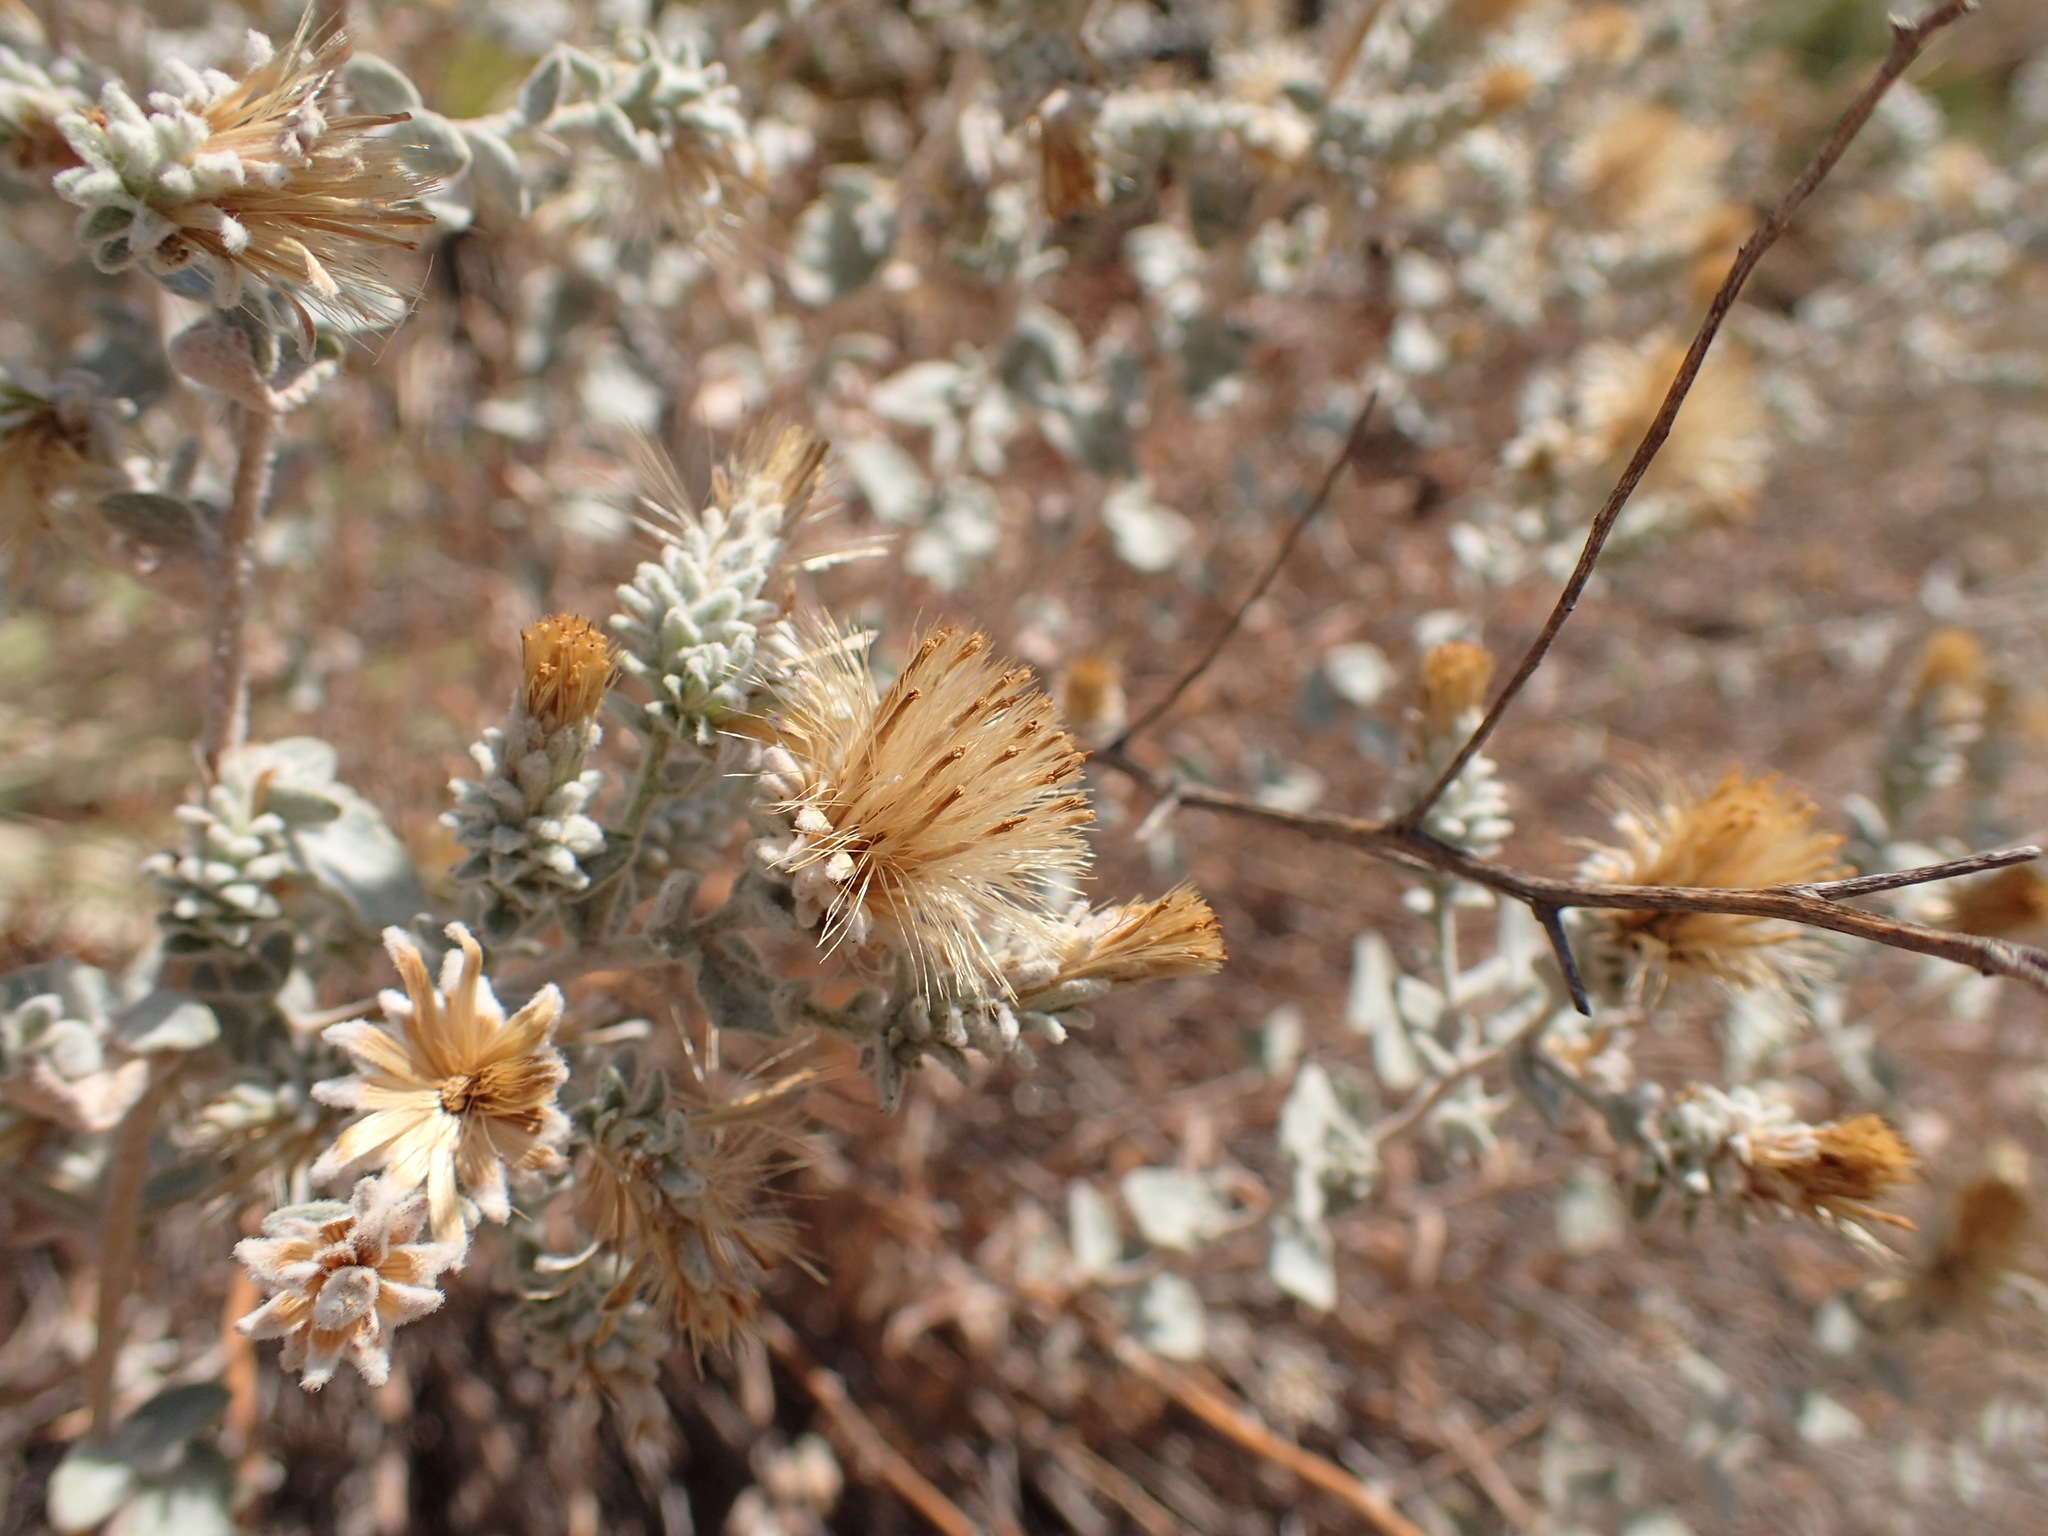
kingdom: Plantae
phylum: Tracheophyta
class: Magnoliopsida
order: Asterales
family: Asteraceae
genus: Brickellia
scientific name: Brickellia nevinii
